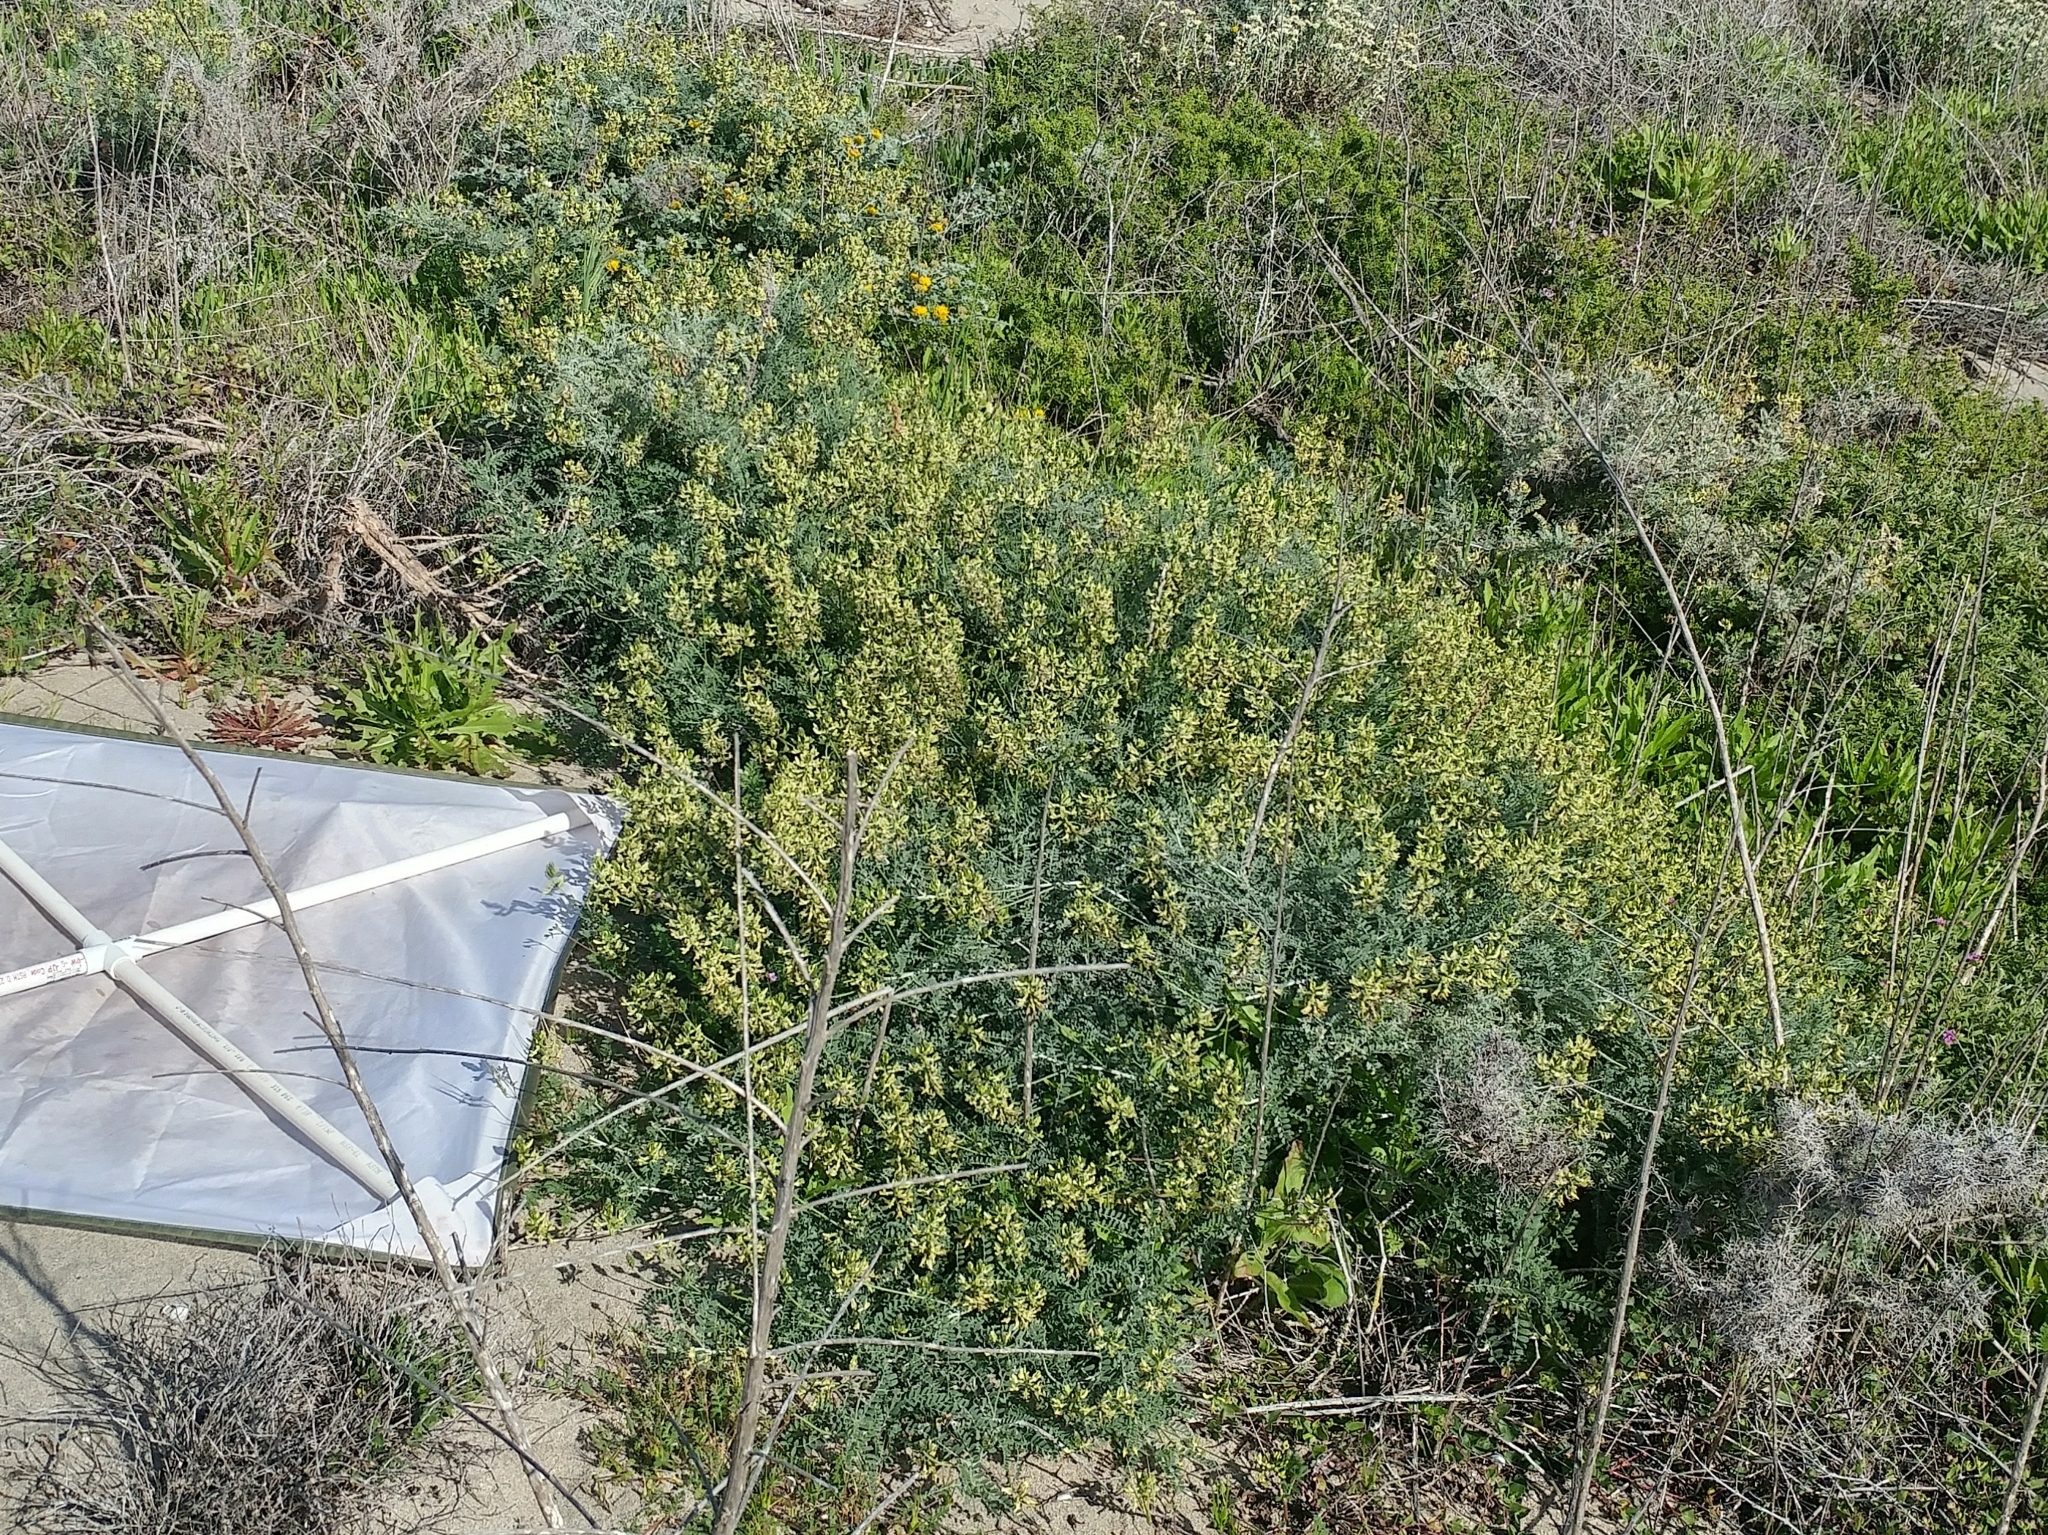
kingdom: Plantae
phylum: Tracheophyta
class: Magnoliopsida
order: Fabales
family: Fabaceae
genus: Astragalus
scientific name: Astragalus nevinii
